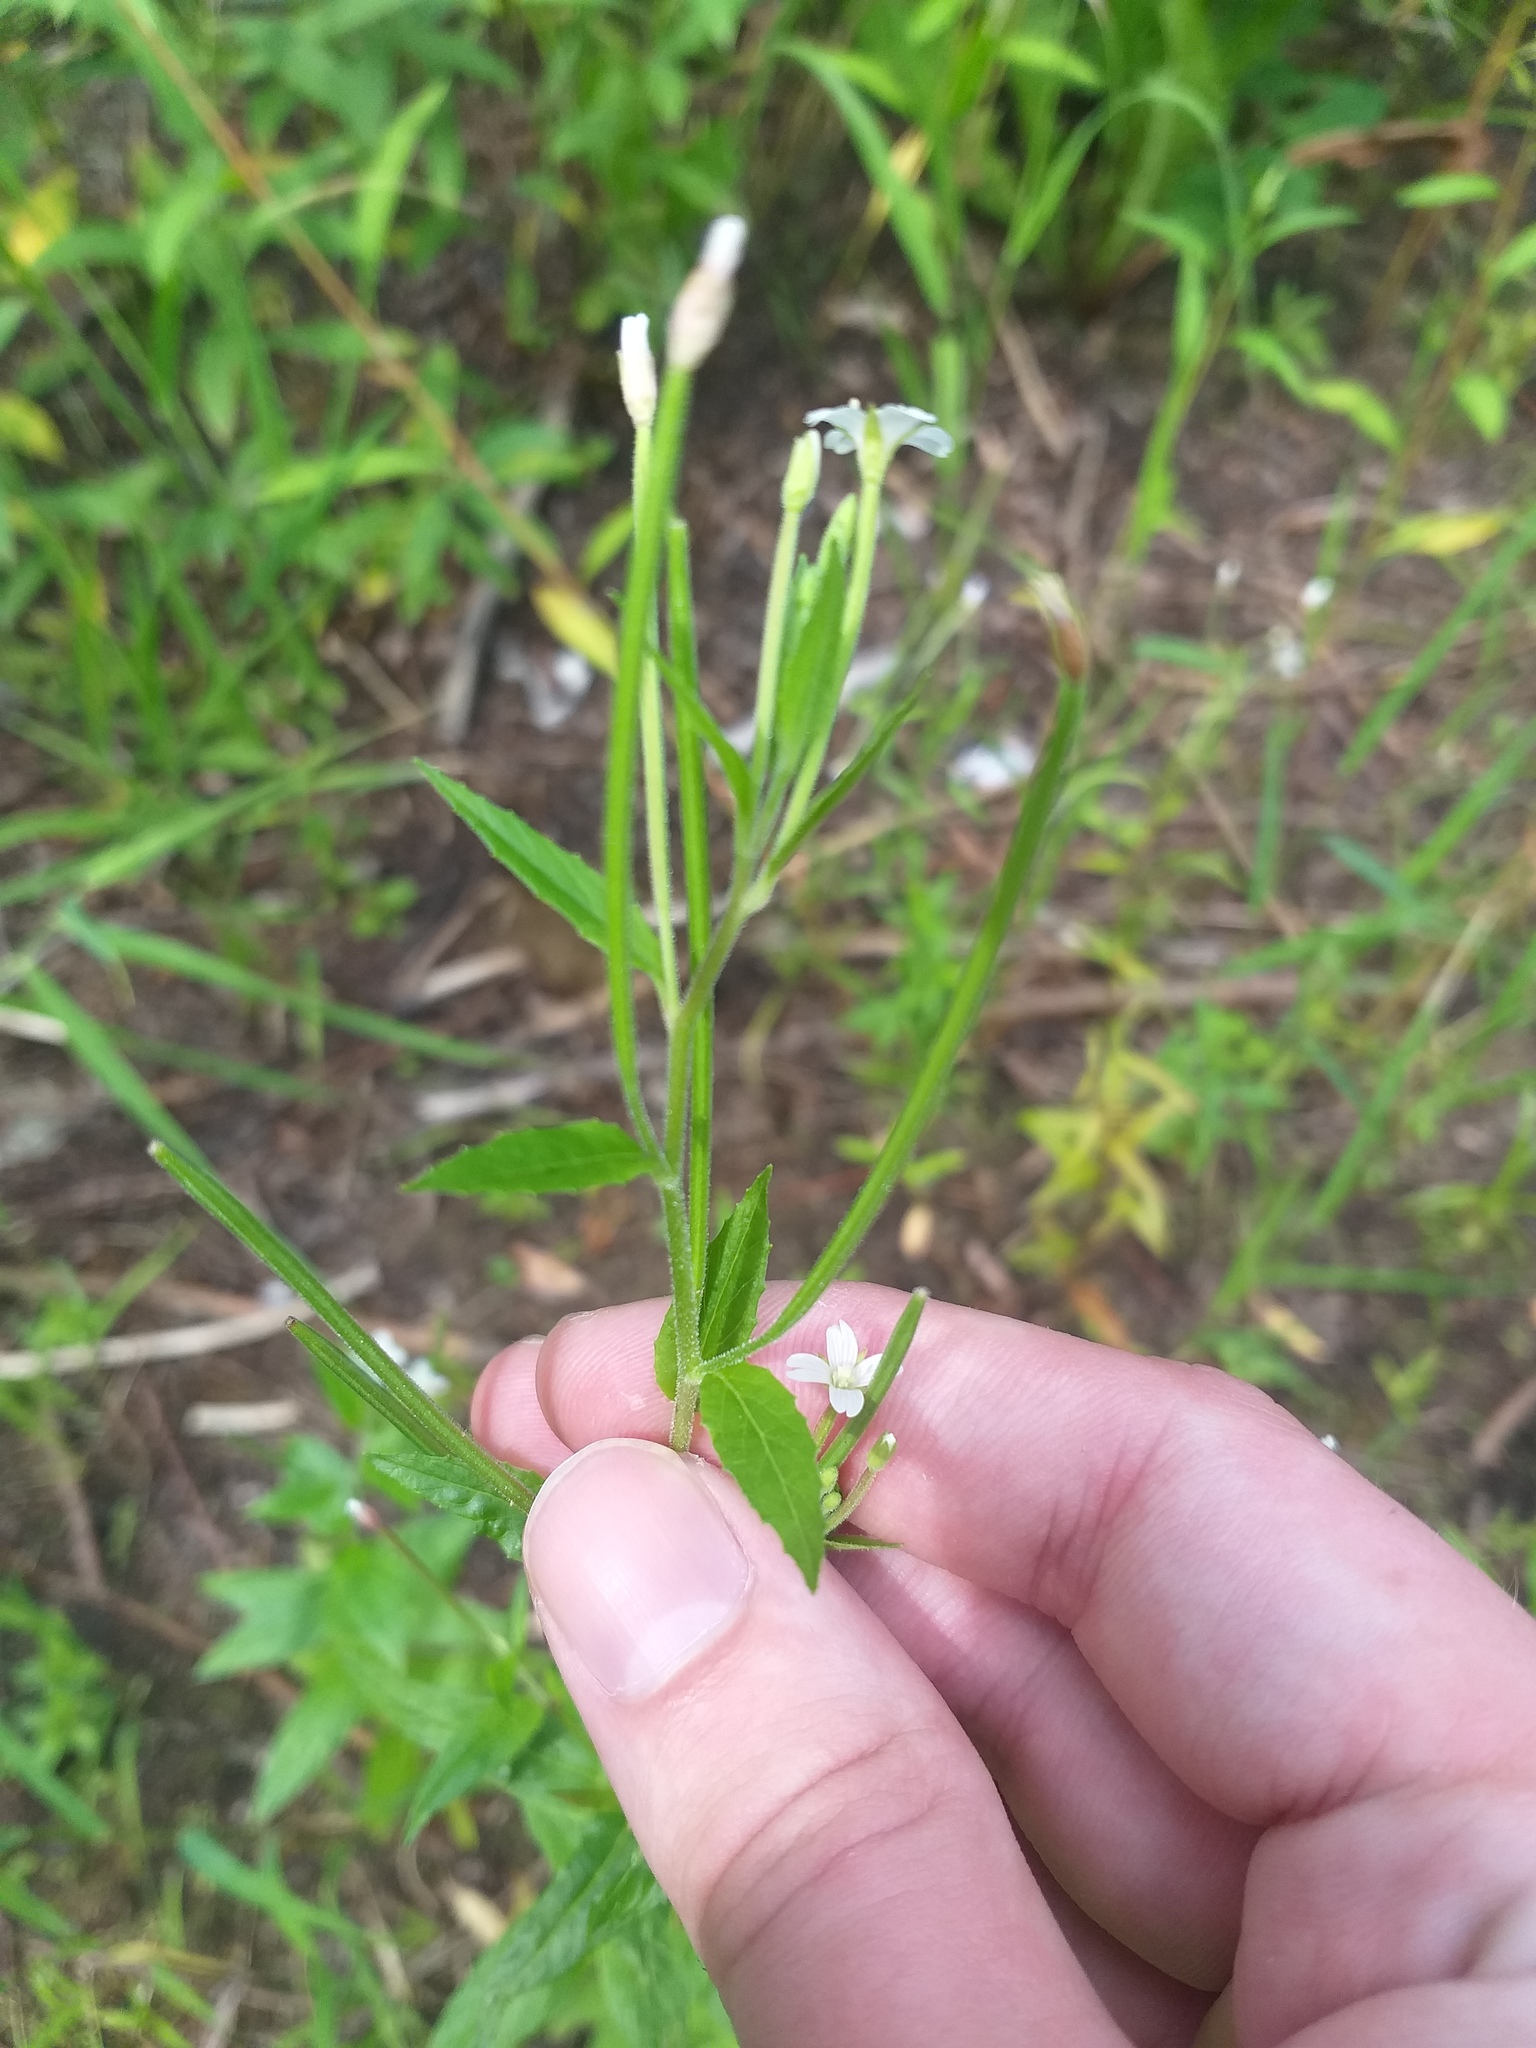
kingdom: Plantae
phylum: Tracheophyta
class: Magnoliopsida
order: Myrtales
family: Onagraceae
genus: Epilobium
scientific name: Epilobium pseudorubescens
